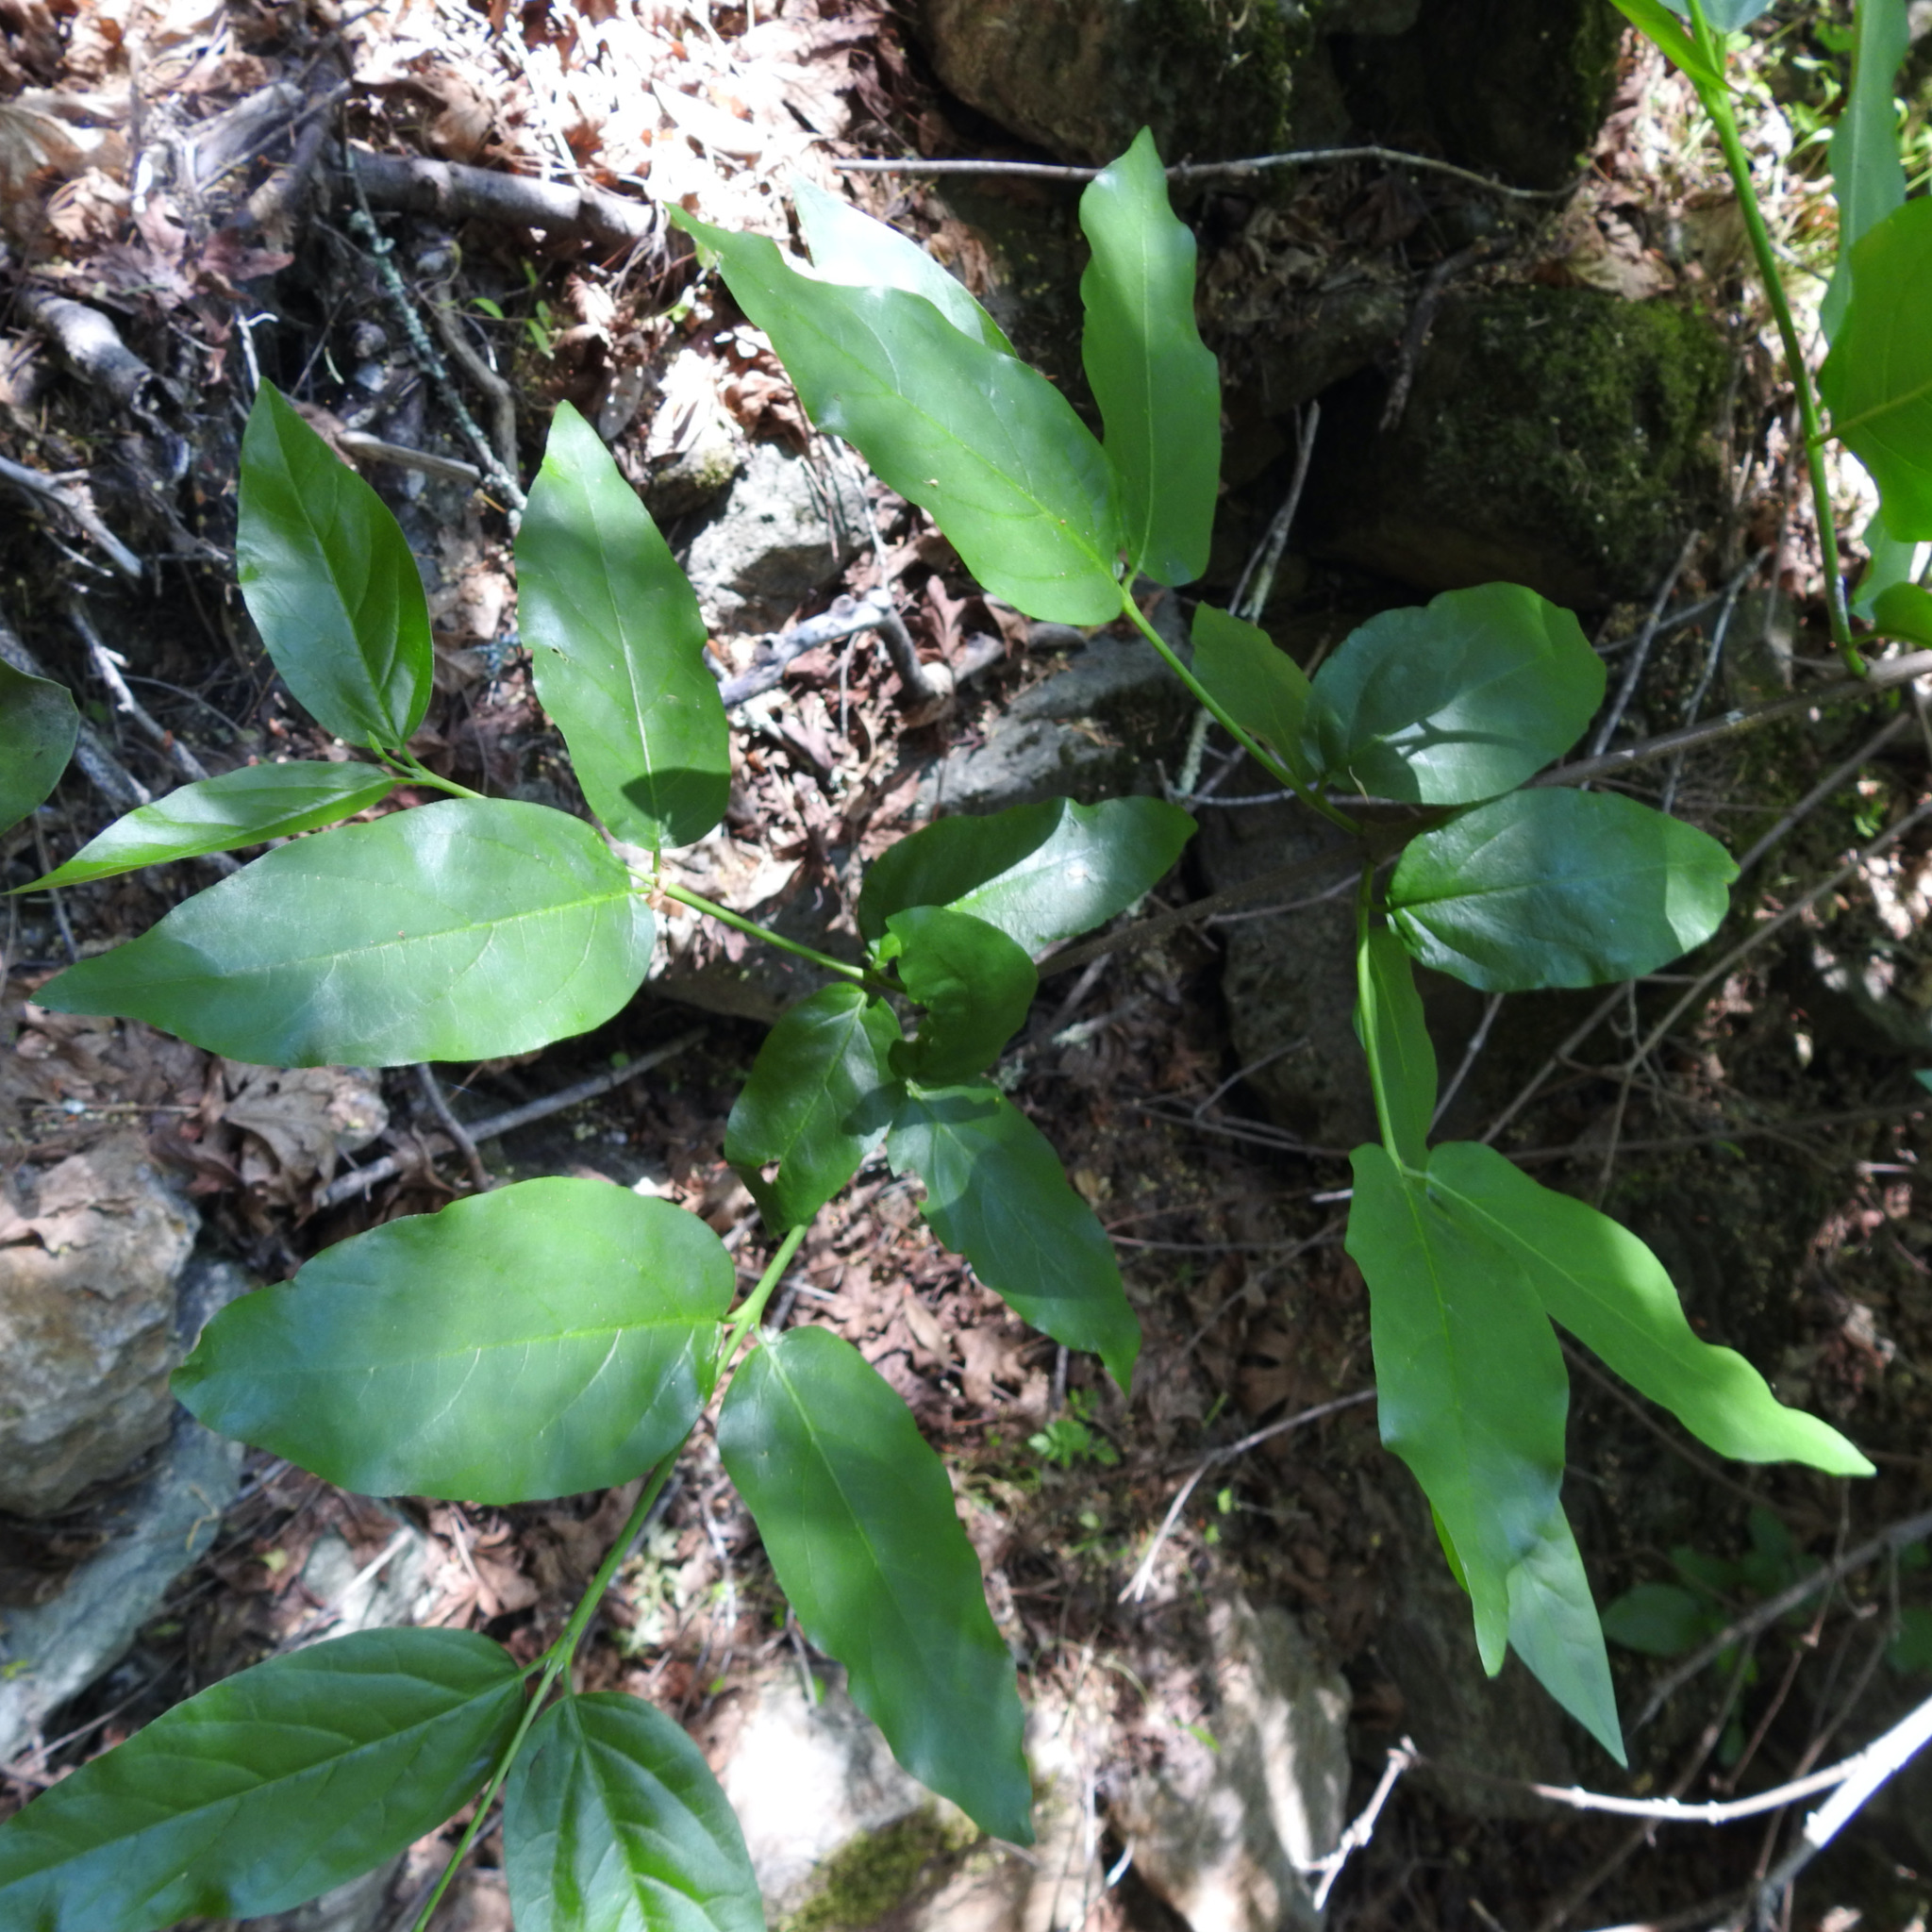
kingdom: Plantae
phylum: Tracheophyta
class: Magnoliopsida
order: Laurales
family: Calycanthaceae
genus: Calycanthus
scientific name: Calycanthus occidentalis
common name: California spicebush
